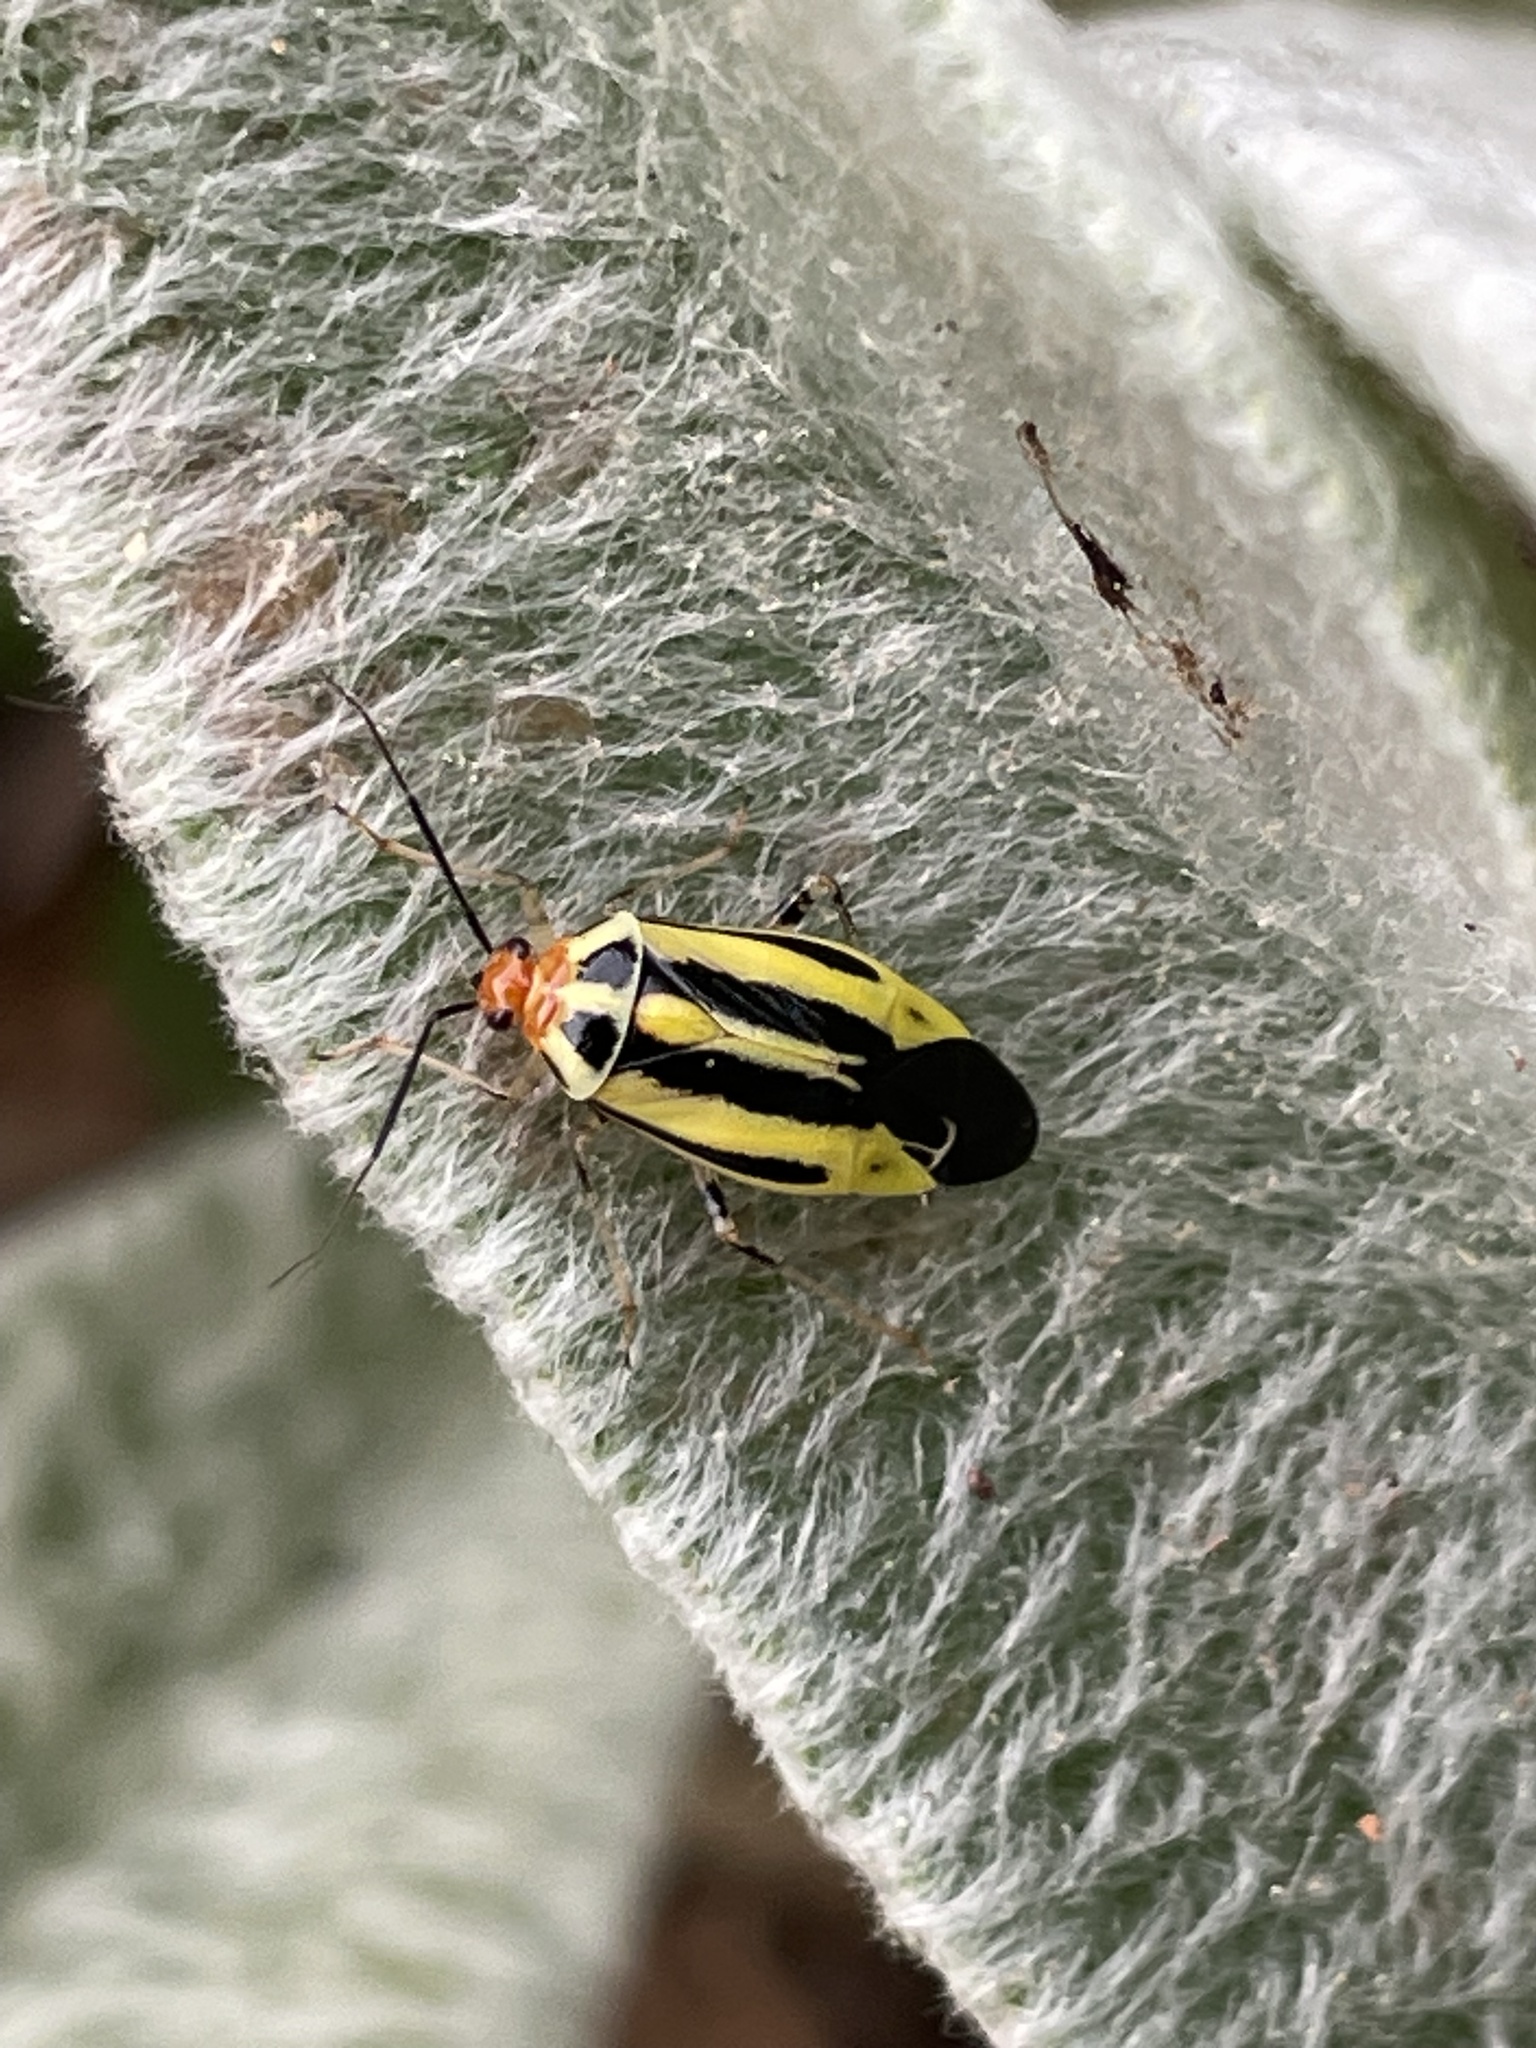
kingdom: Animalia
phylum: Arthropoda
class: Insecta
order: Hemiptera
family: Miridae
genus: Poecilocapsus
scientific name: Poecilocapsus lineatus
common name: Four-lined plant bug
